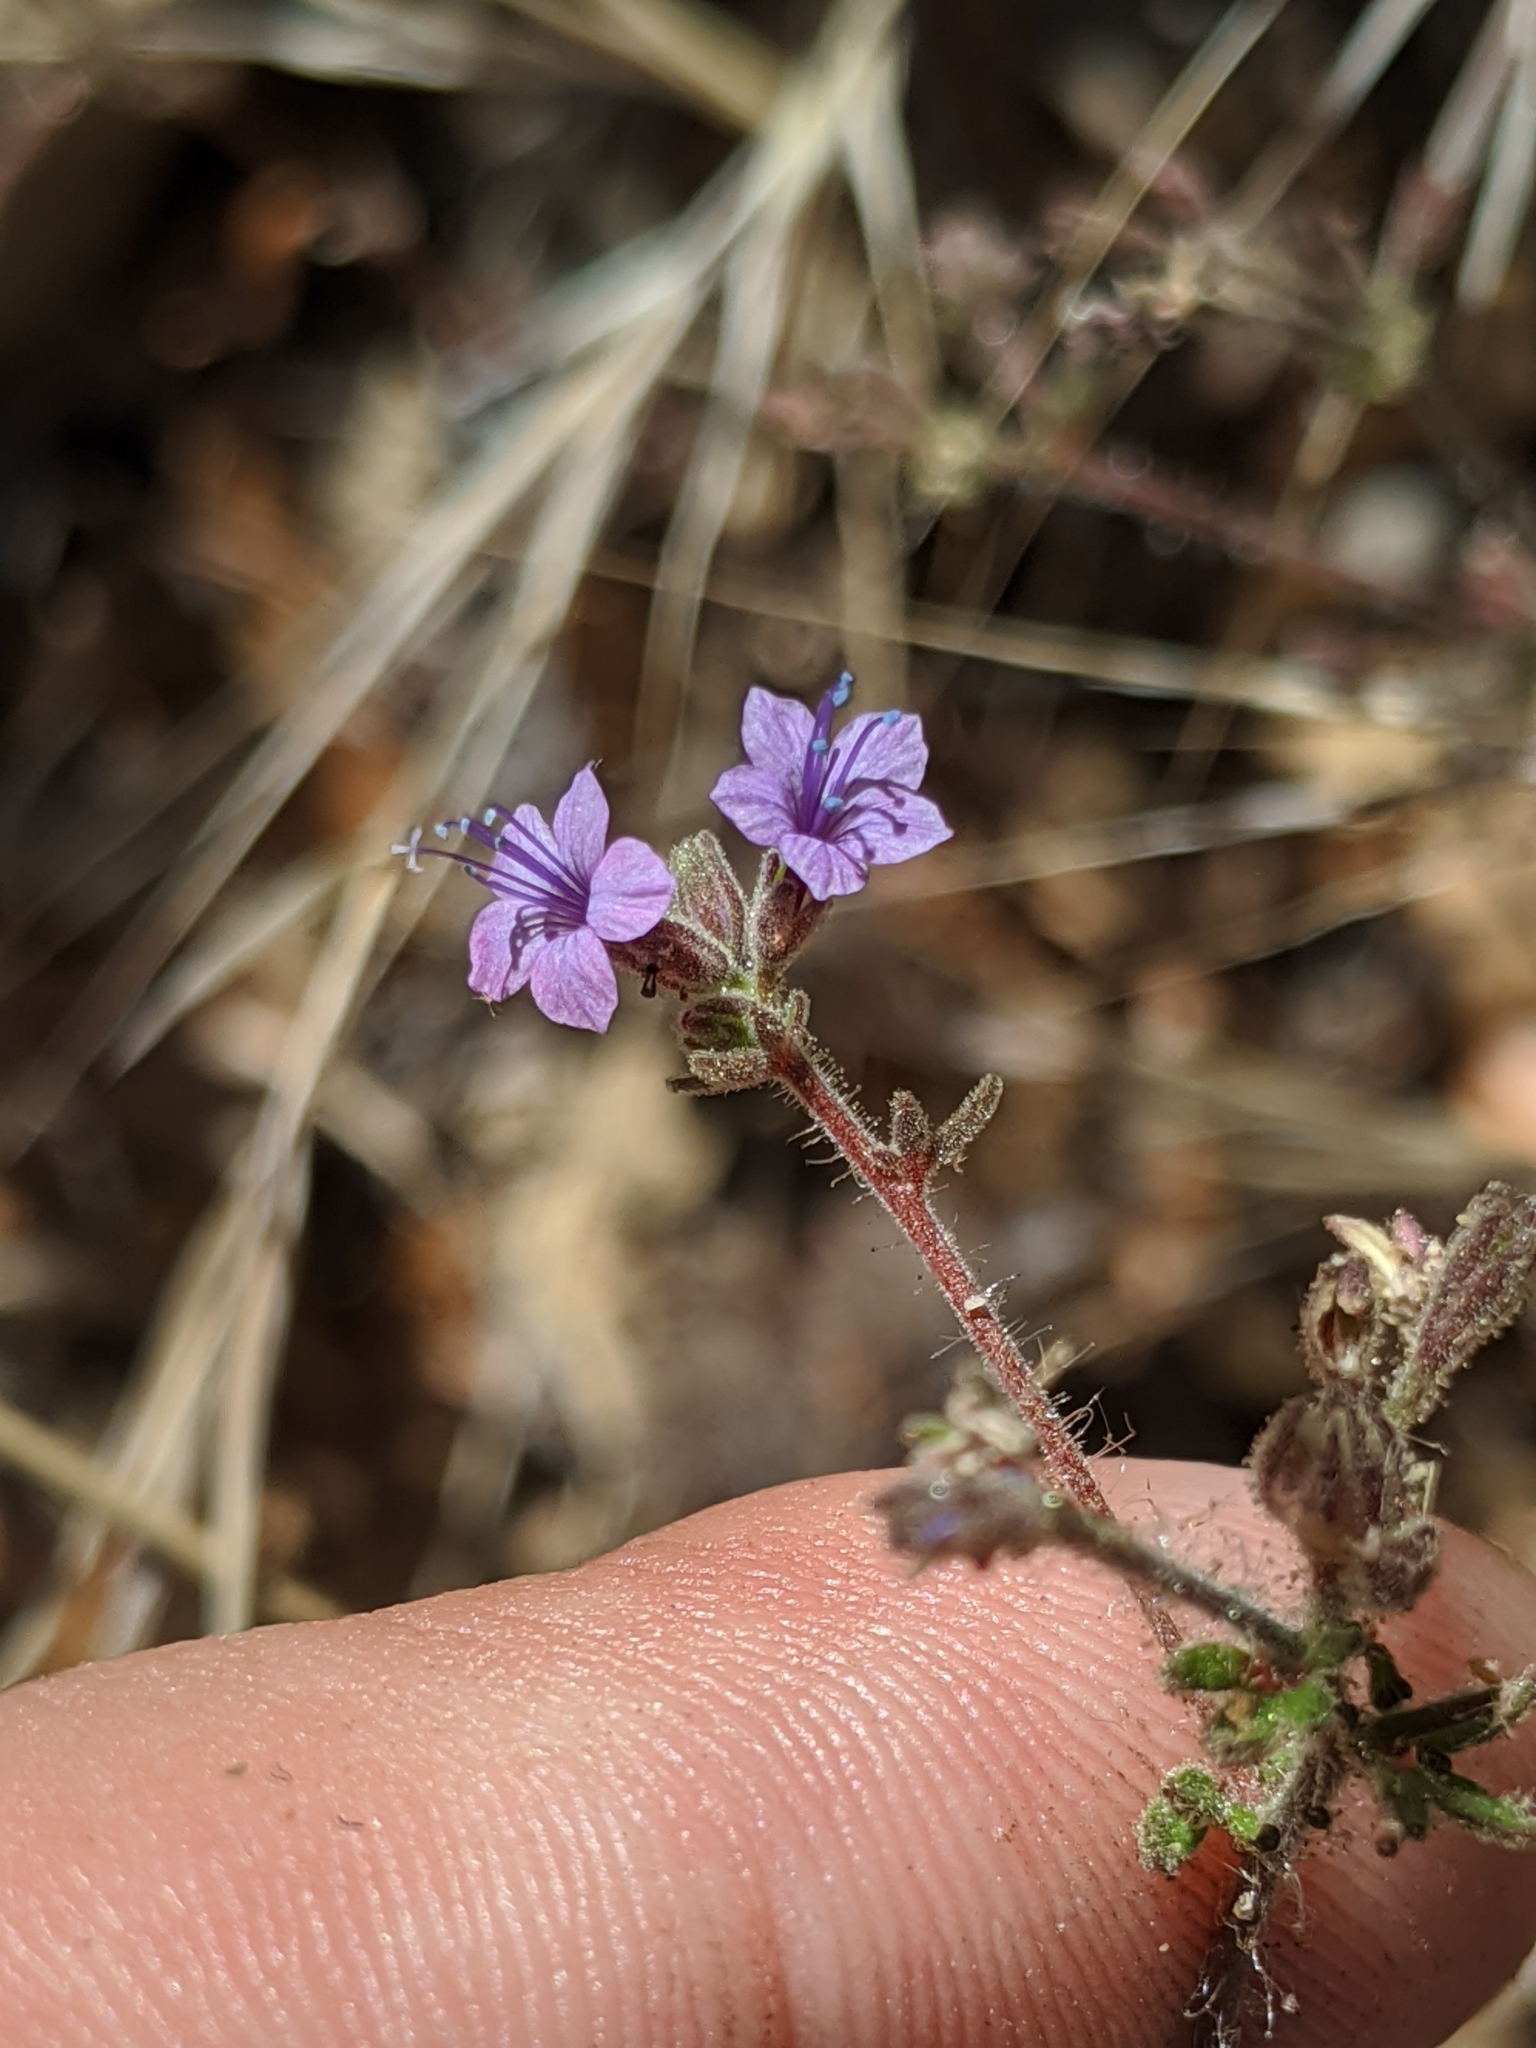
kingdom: Plantae
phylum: Tracheophyta
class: Magnoliopsida
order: Ericales
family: Polemoniaceae
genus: Allophyllum
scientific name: Allophyllum glutinosum
